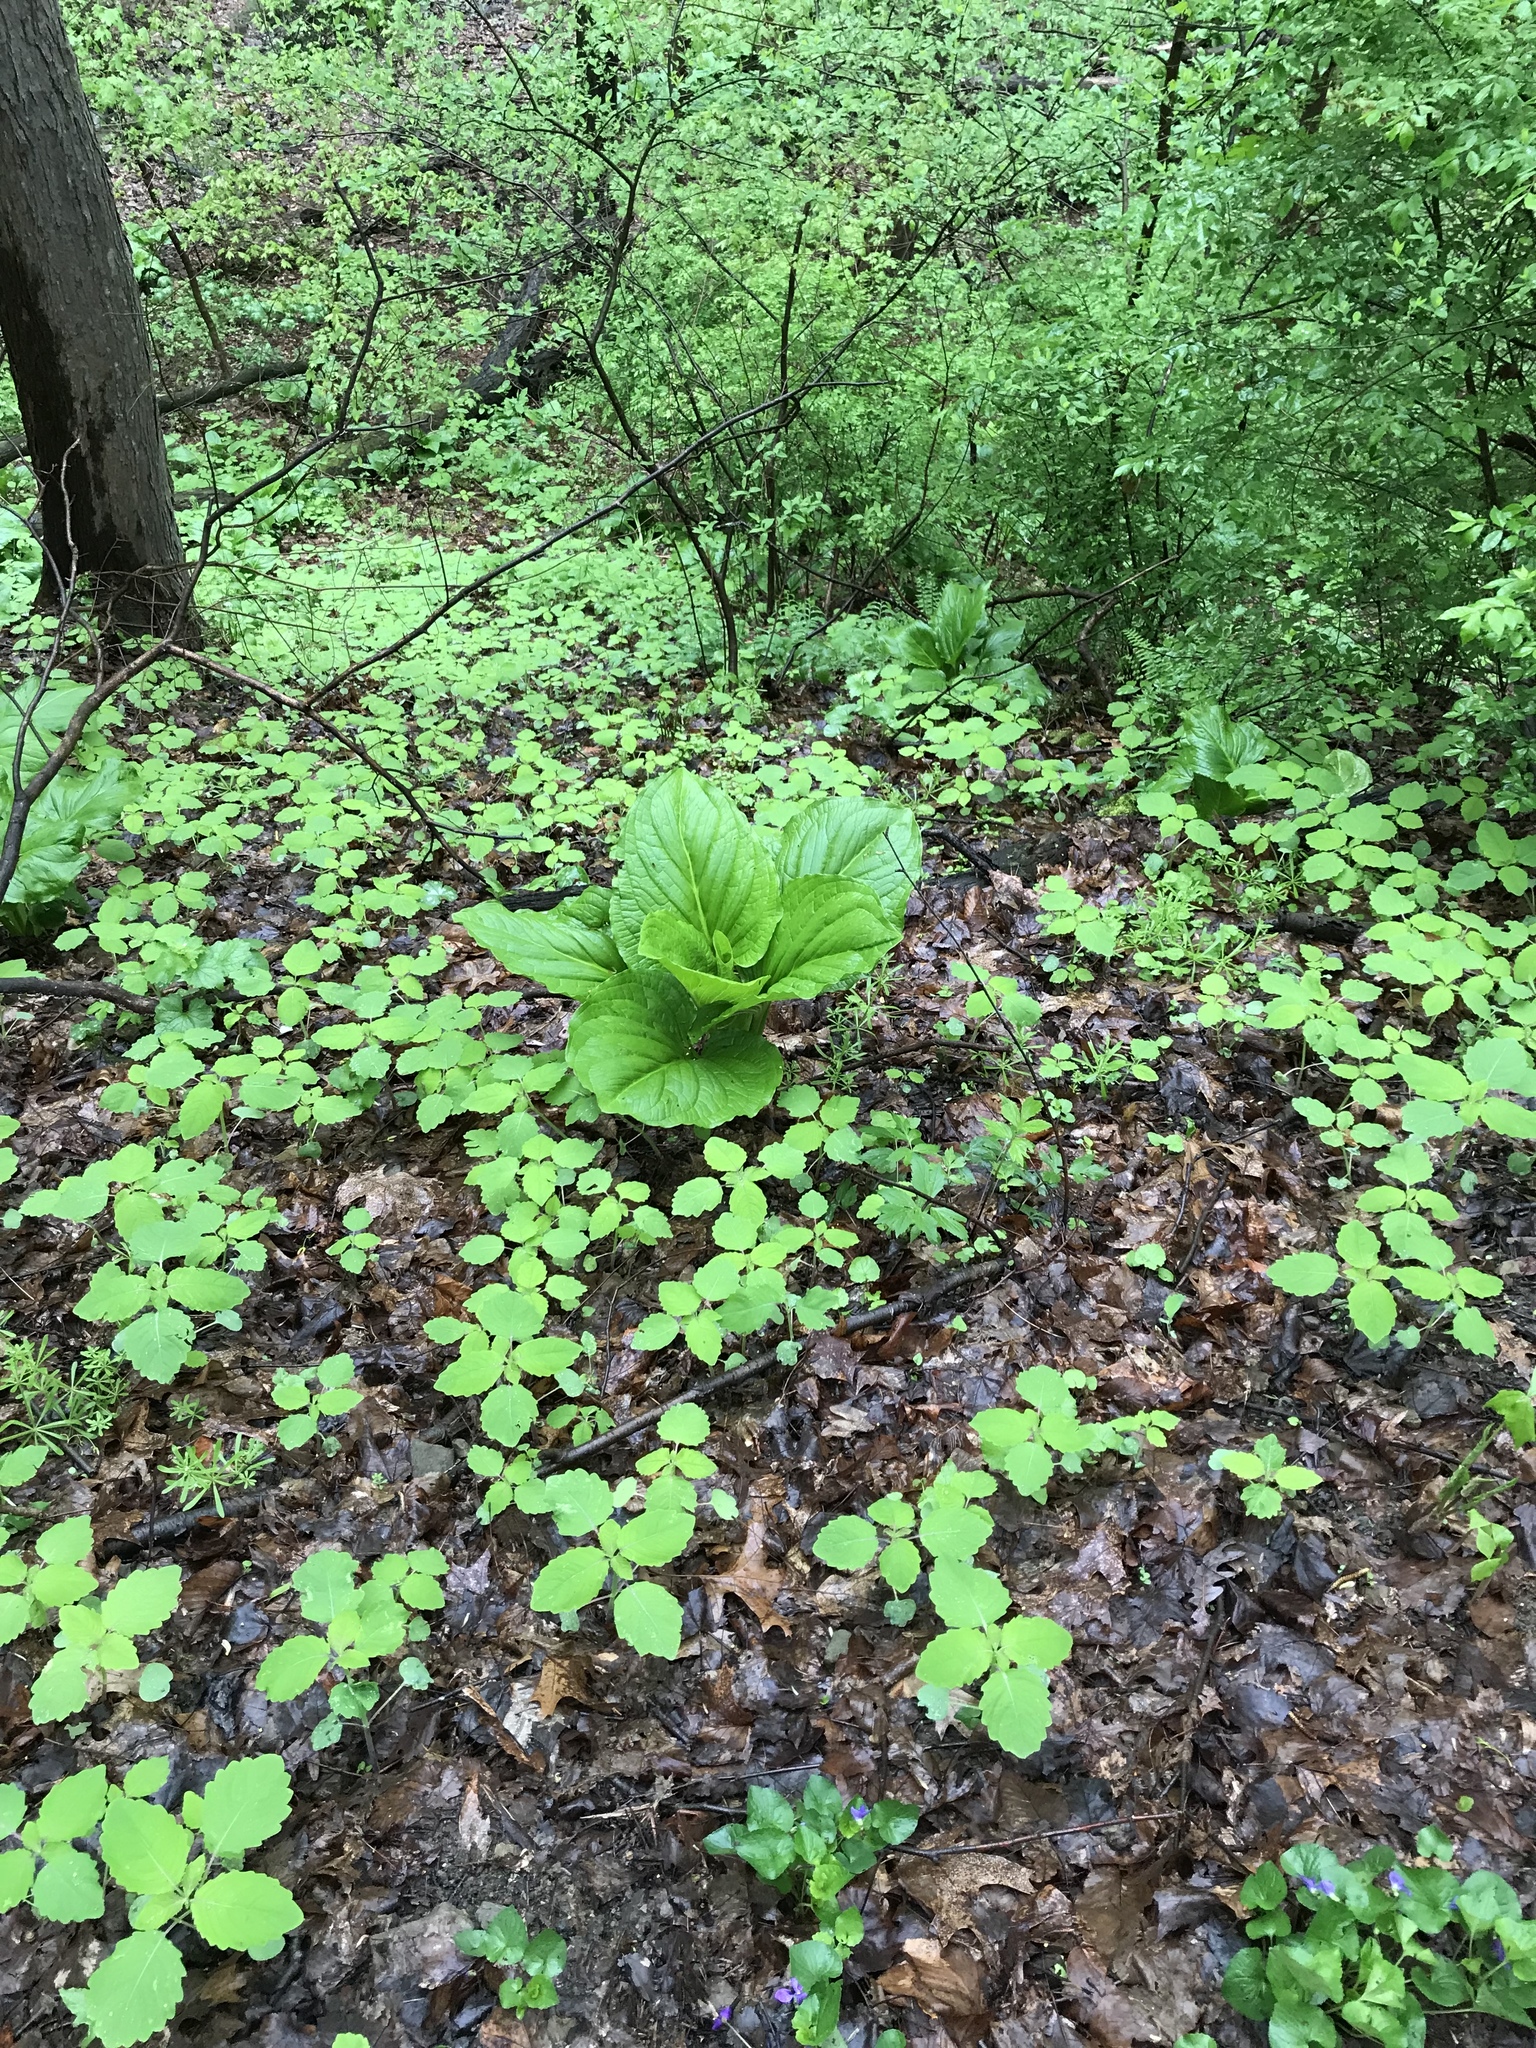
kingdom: Plantae
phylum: Tracheophyta
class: Liliopsida
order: Alismatales
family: Araceae
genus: Symplocarpus
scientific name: Symplocarpus foetidus
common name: Eastern skunk cabbage
